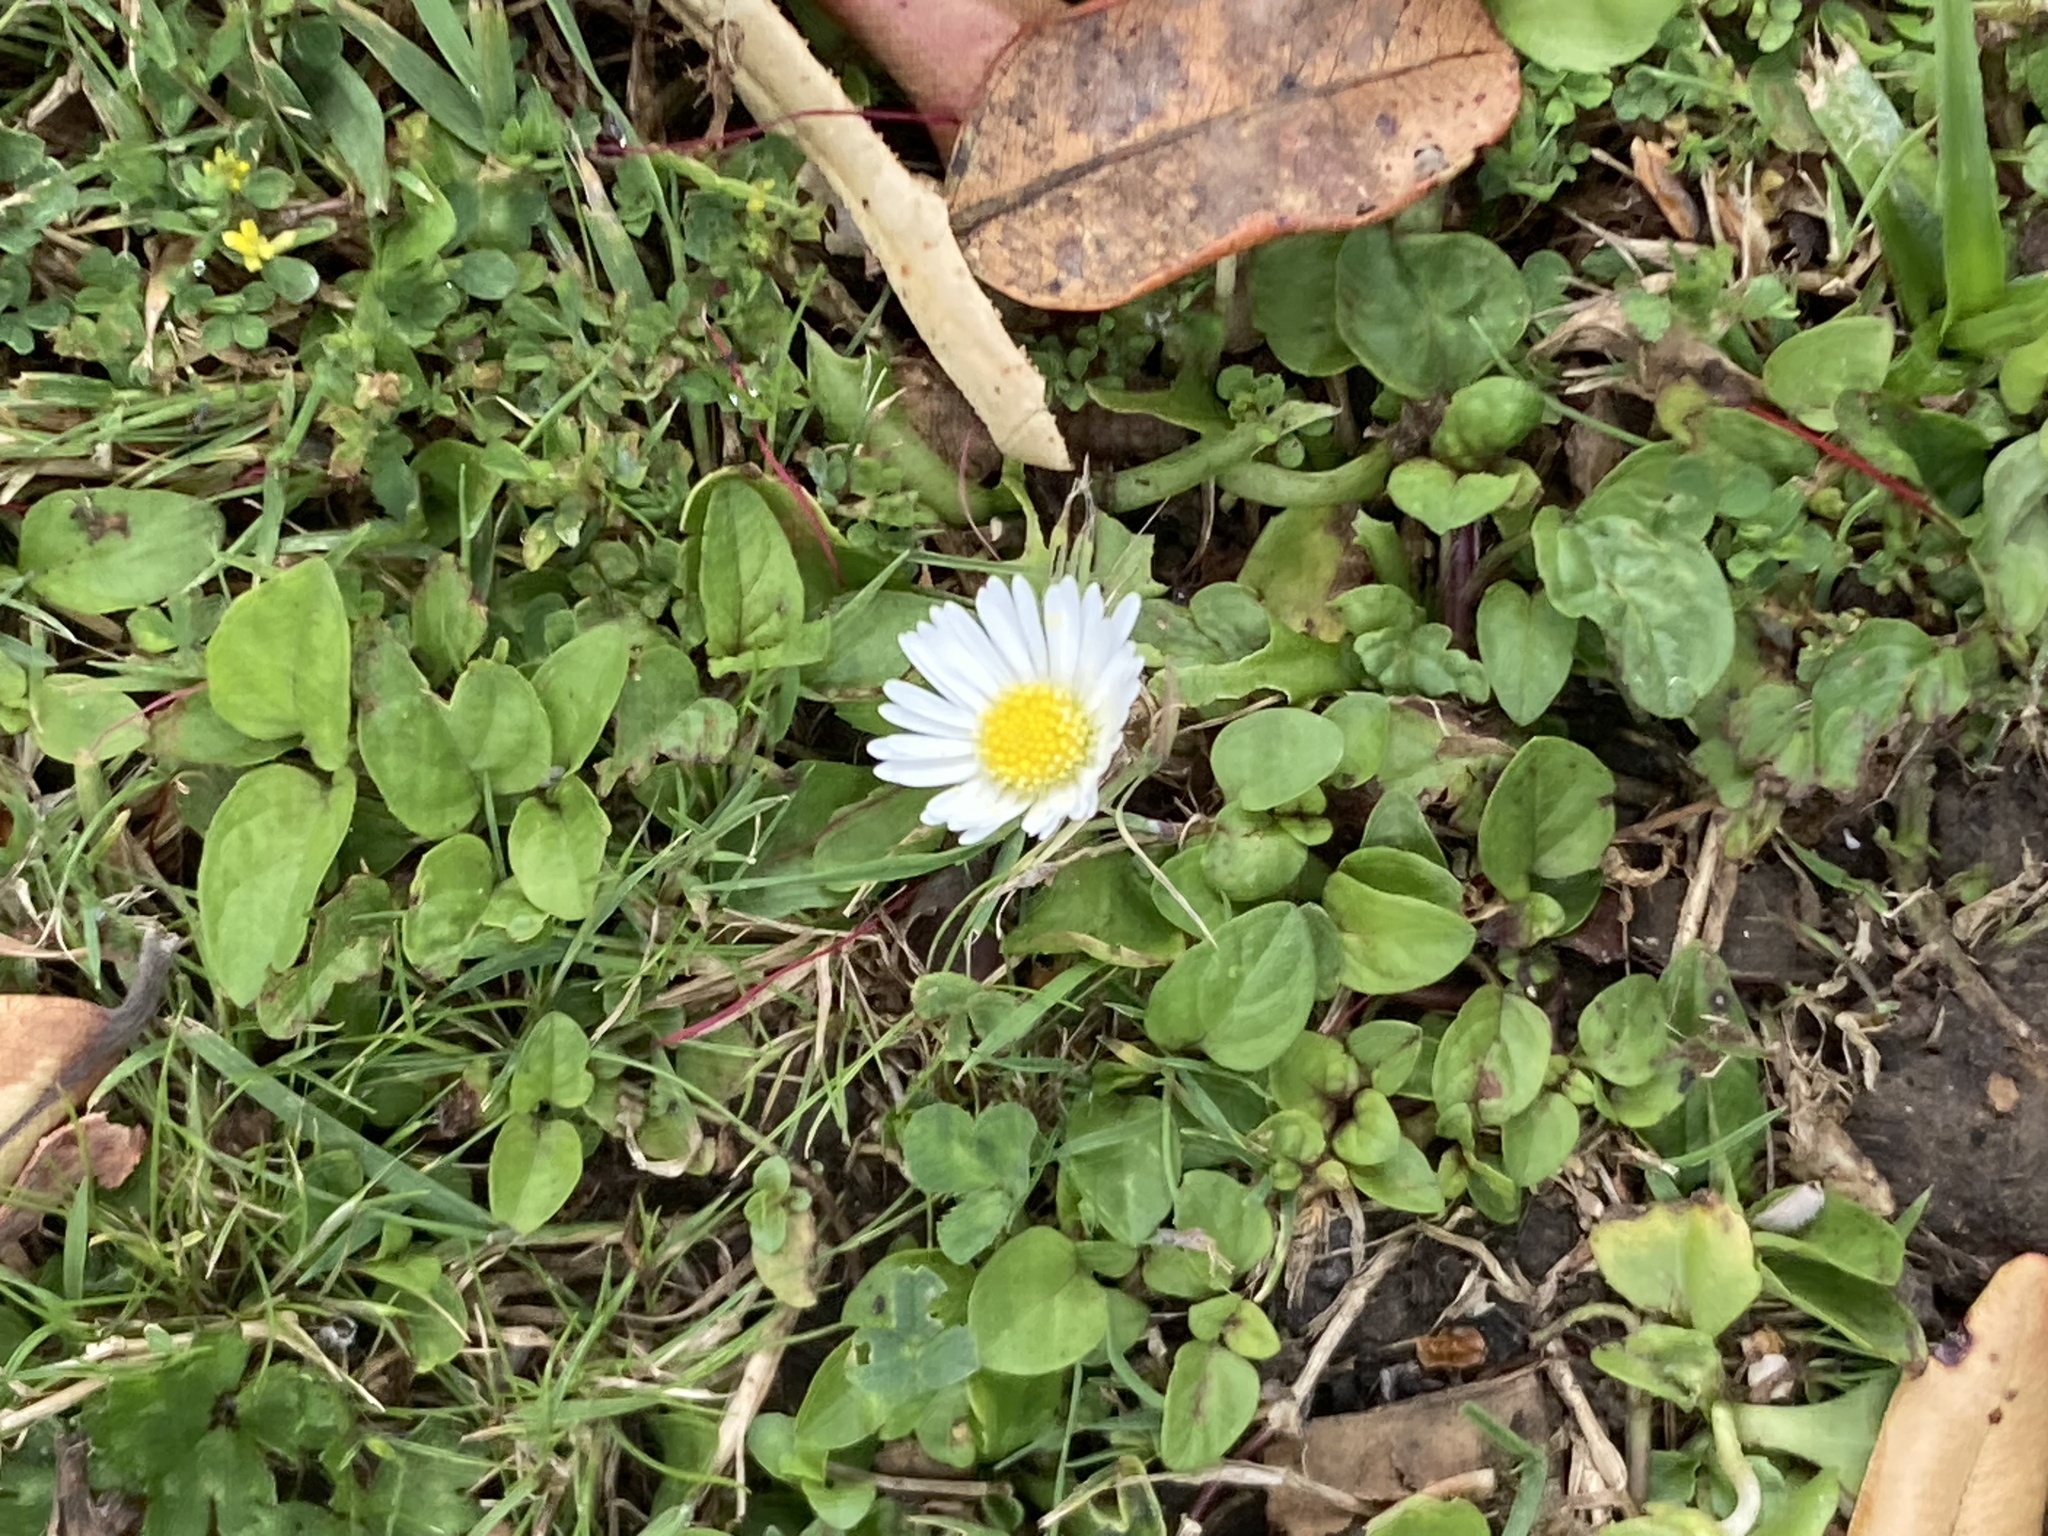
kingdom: Plantae
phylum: Tracheophyta
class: Magnoliopsida
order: Asterales
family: Asteraceae
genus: Bellis
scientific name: Bellis perennis
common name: Lawndaisy
